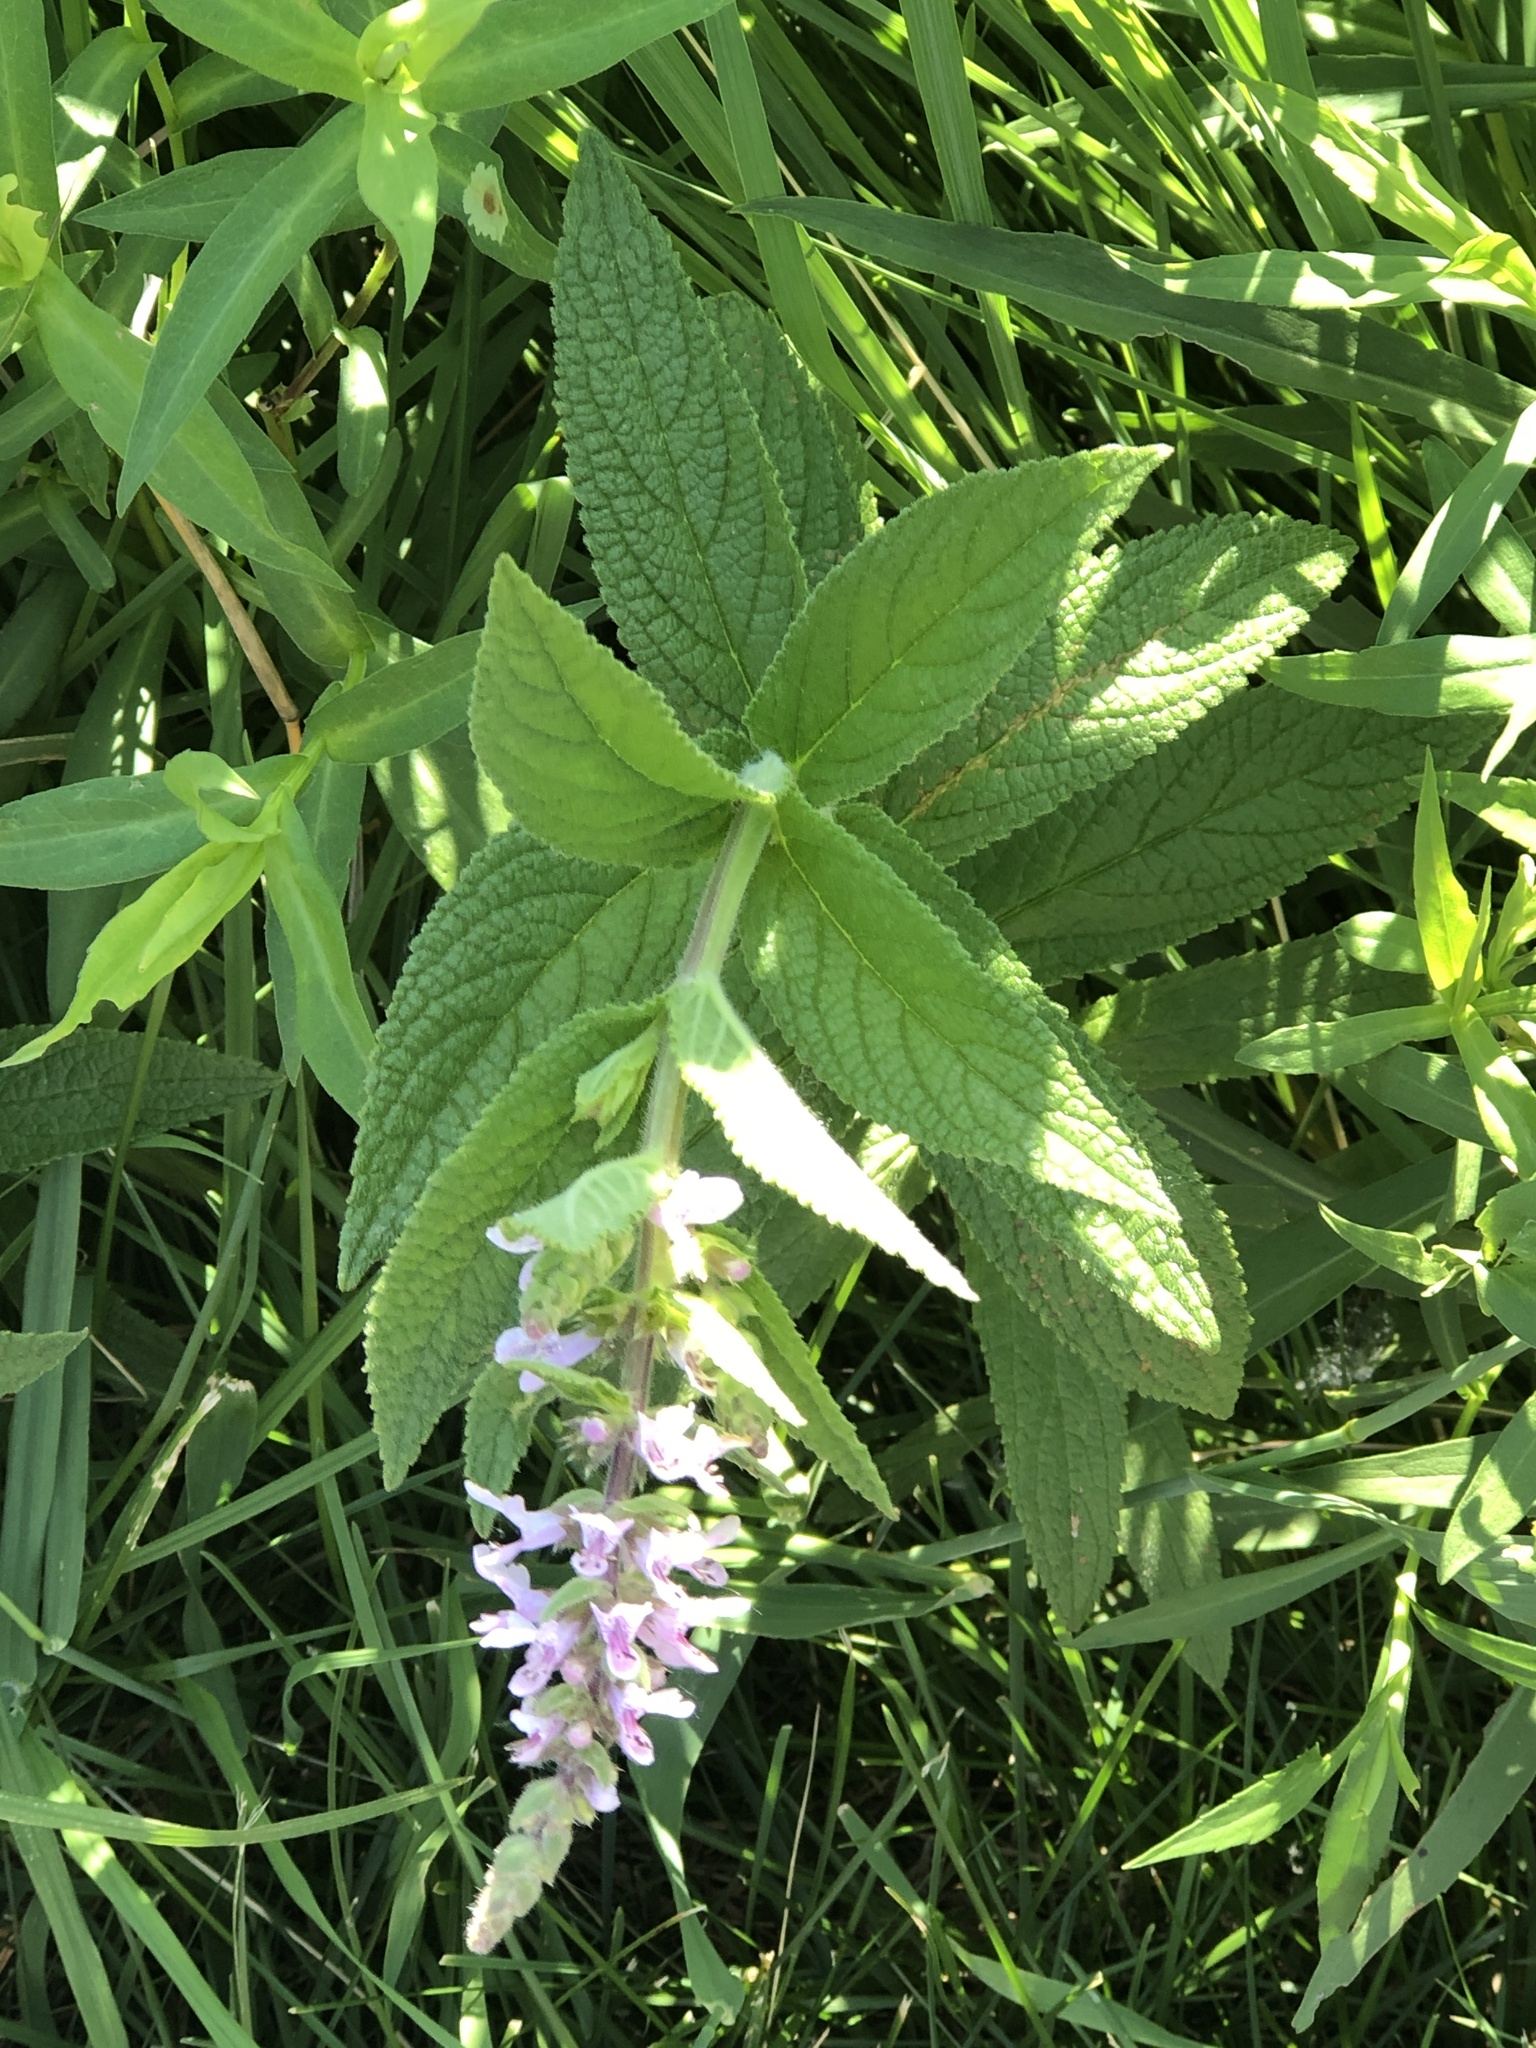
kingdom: Plantae
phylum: Tracheophyta
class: Magnoliopsida
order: Lamiales
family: Lamiaceae
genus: Stachys
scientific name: Stachys palustris
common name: Marsh woundwort
